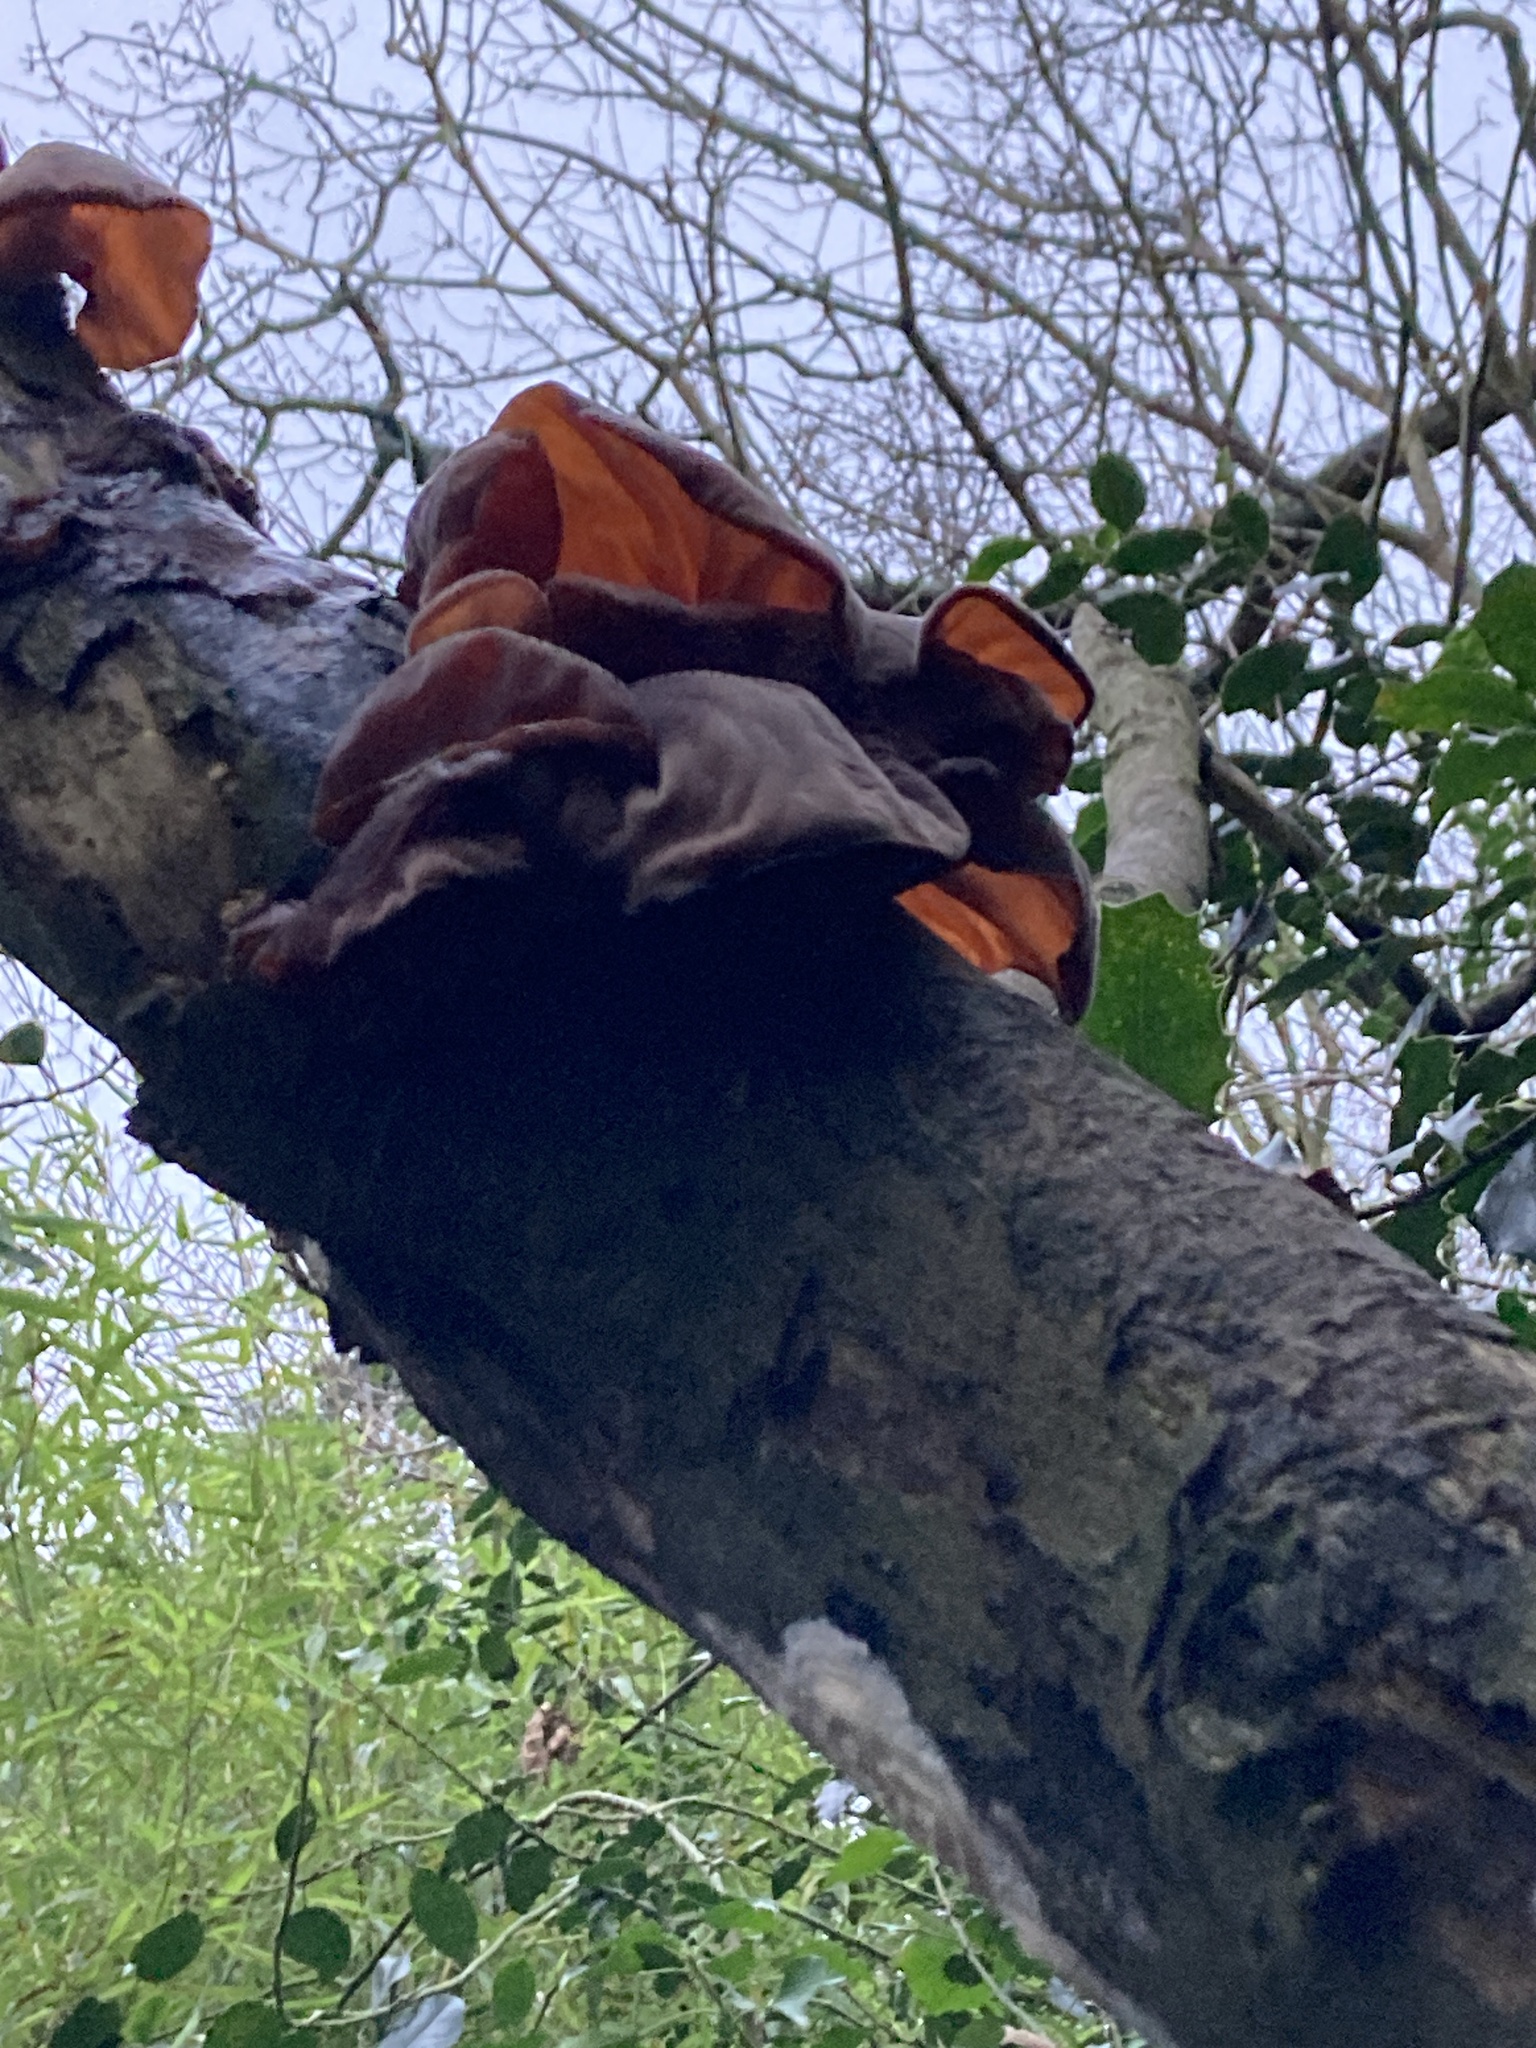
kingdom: Fungi
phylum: Basidiomycota
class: Agaricomycetes
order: Auriculariales
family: Auriculariaceae
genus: Auricularia
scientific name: Auricularia auricula-judae
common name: Jelly ear
